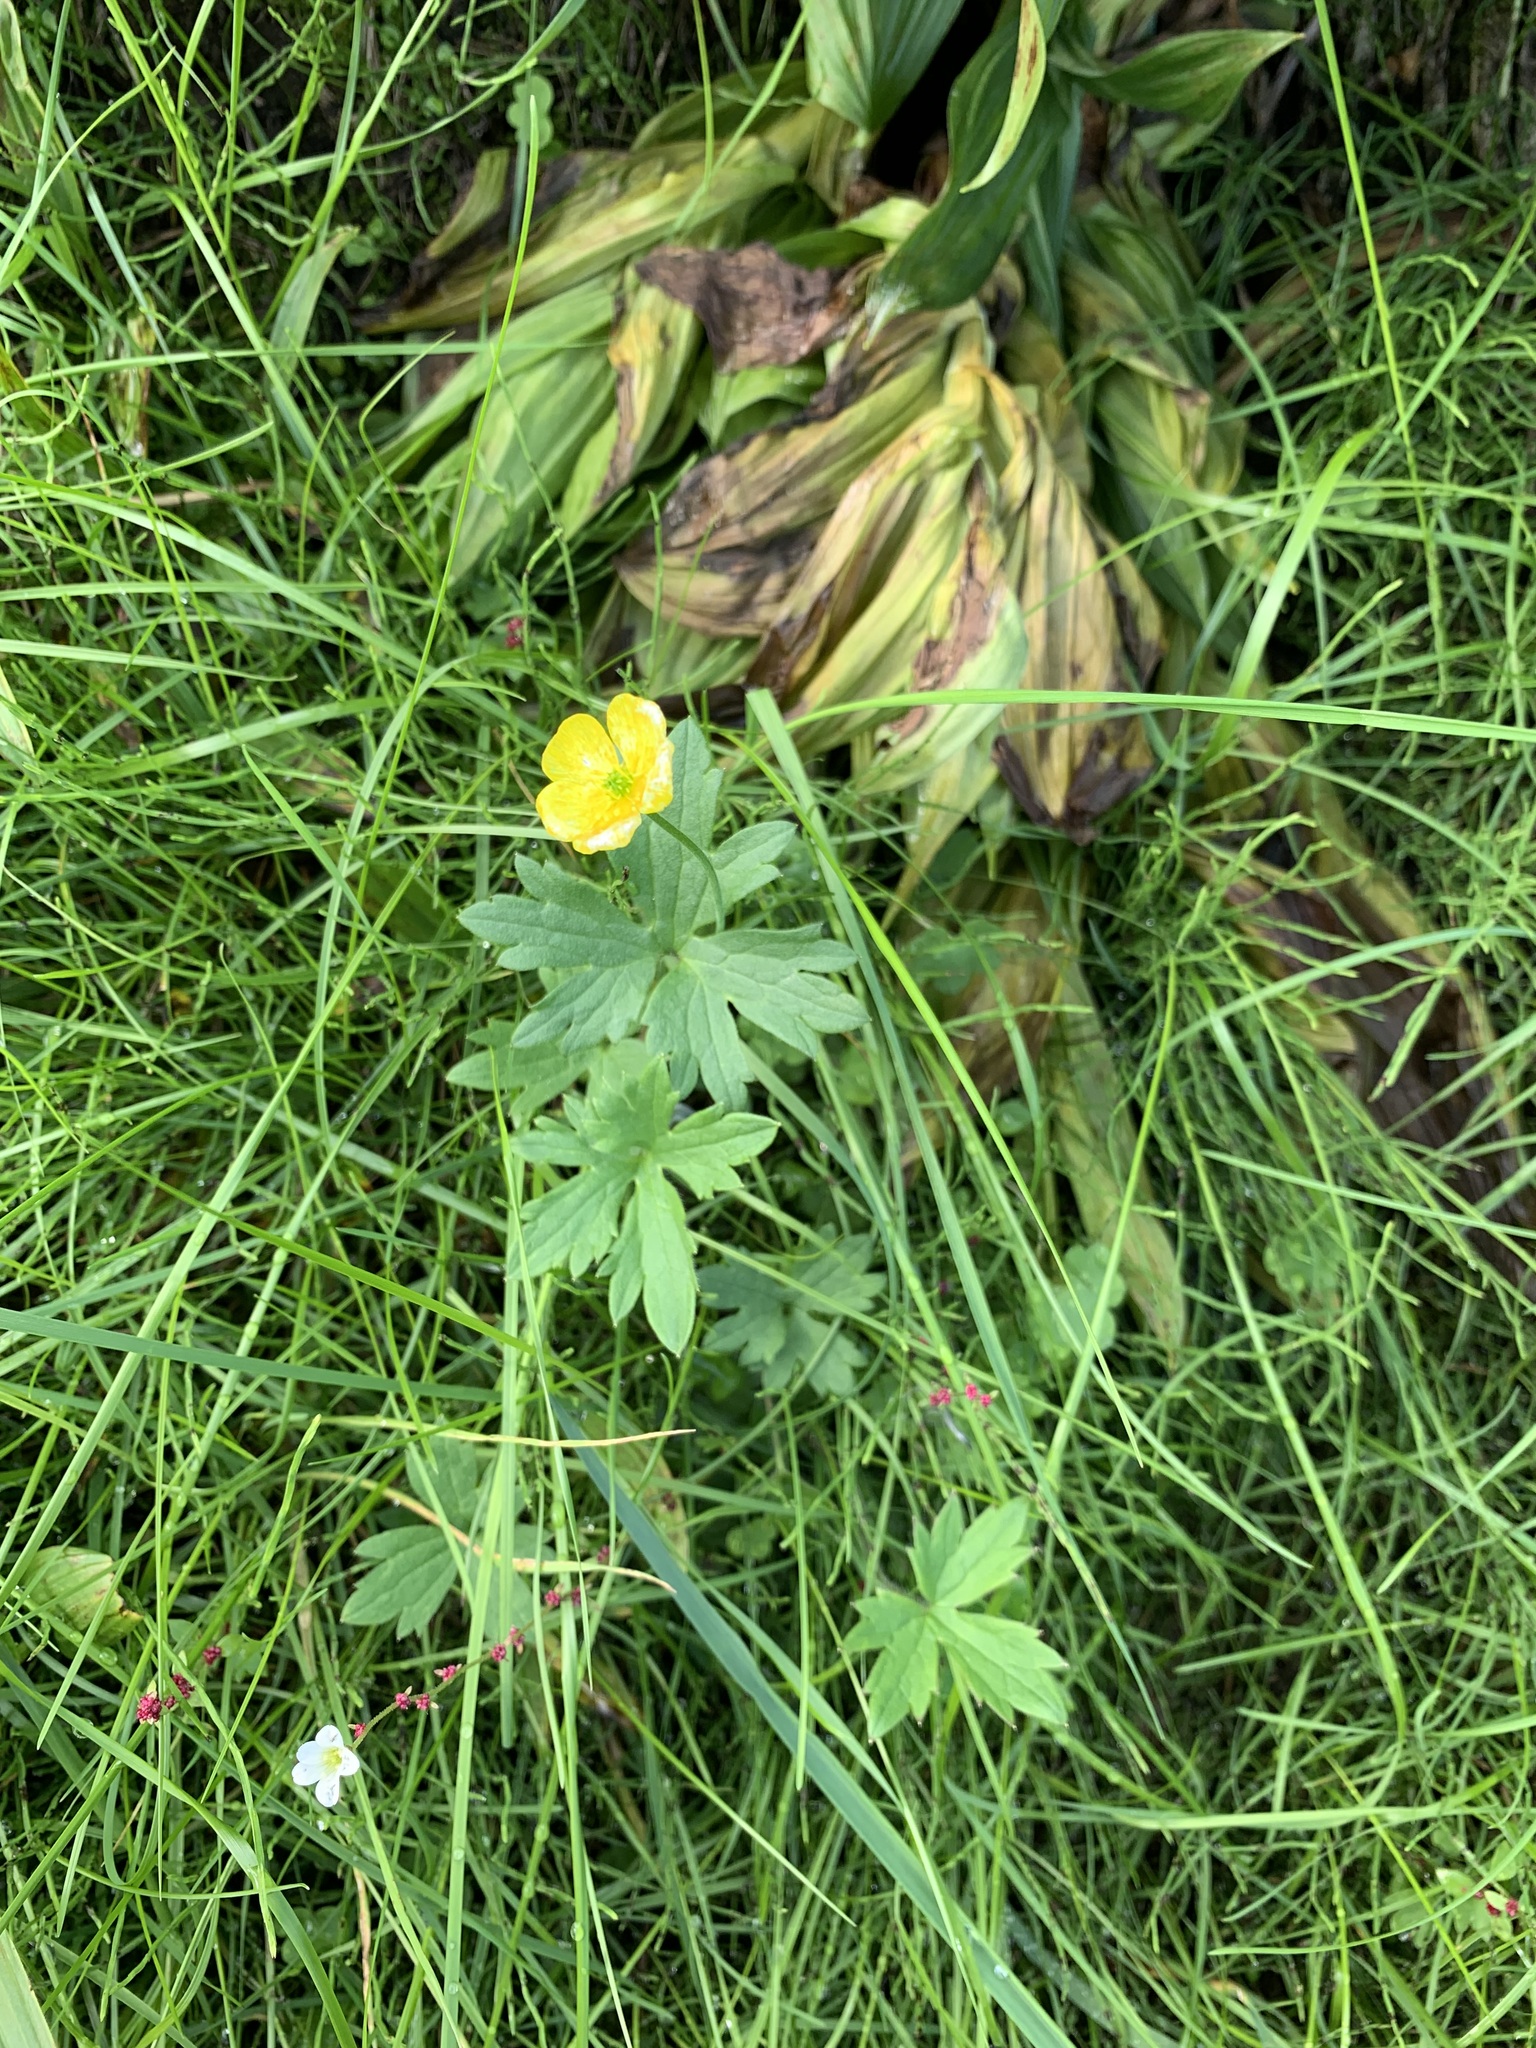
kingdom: Plantae
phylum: Tracheophyta
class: Magnoliopsida
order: Ranunculales
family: Ranunculaceae
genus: Ranunculus
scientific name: Ranunculus propinquus
